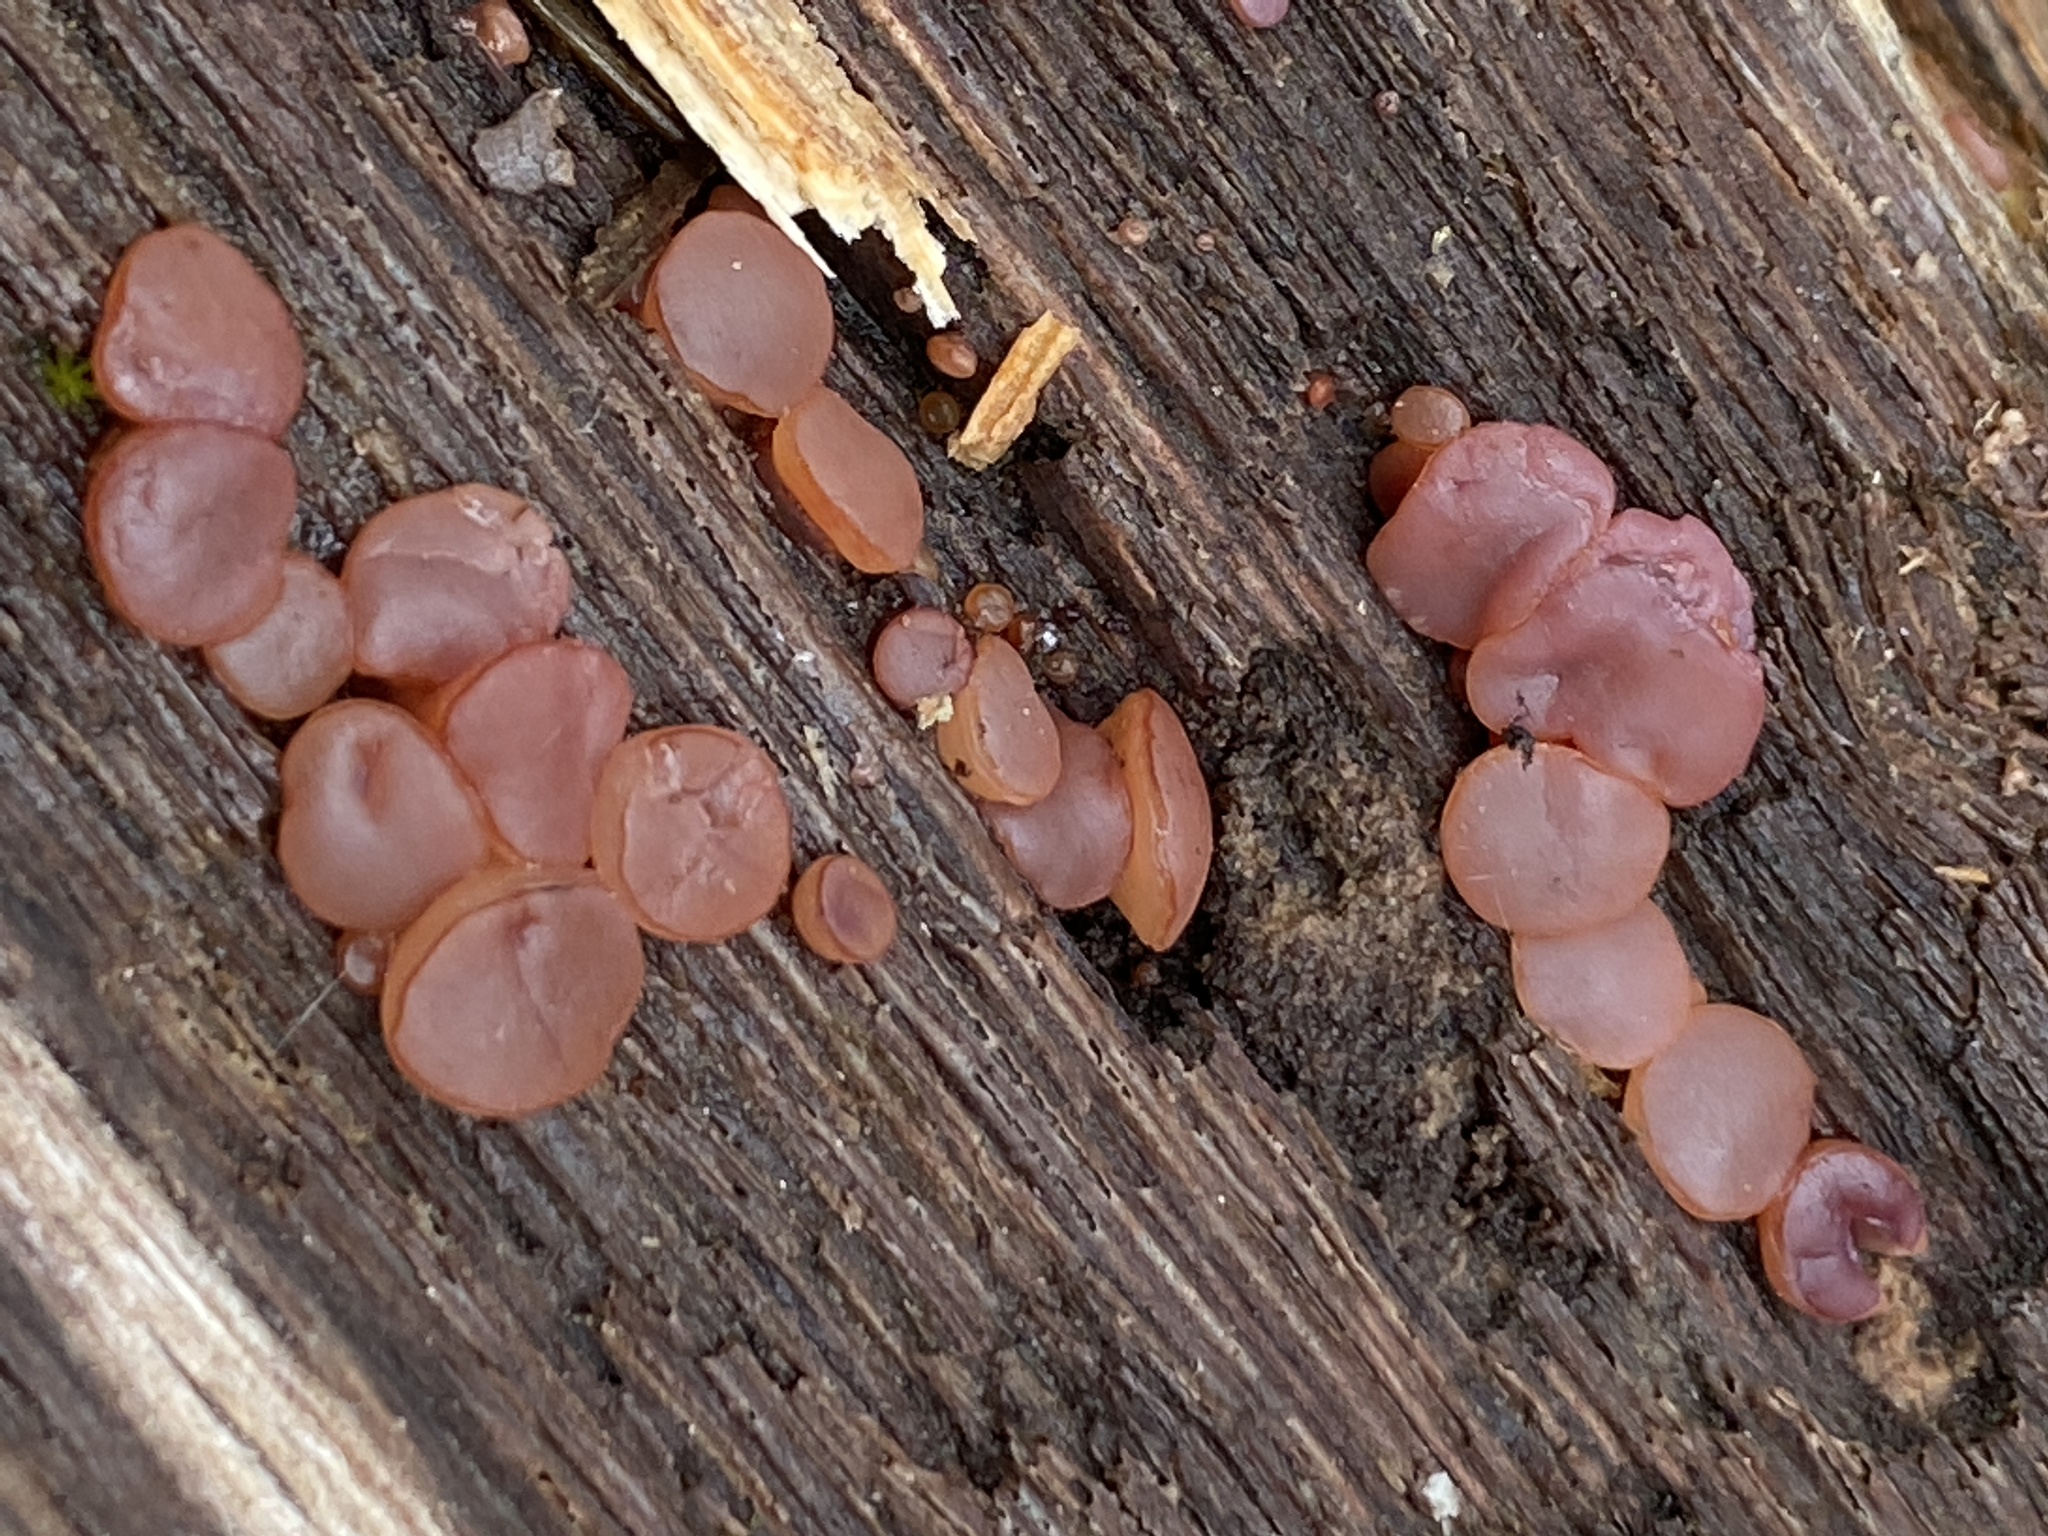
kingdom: Fungi
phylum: Ascomycota
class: Leotiomycetes
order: Helotiales
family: Gelatinodiscaceae
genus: Ascocoryne
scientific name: Ascocoryne sarcoides
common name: Purple jellydisc
